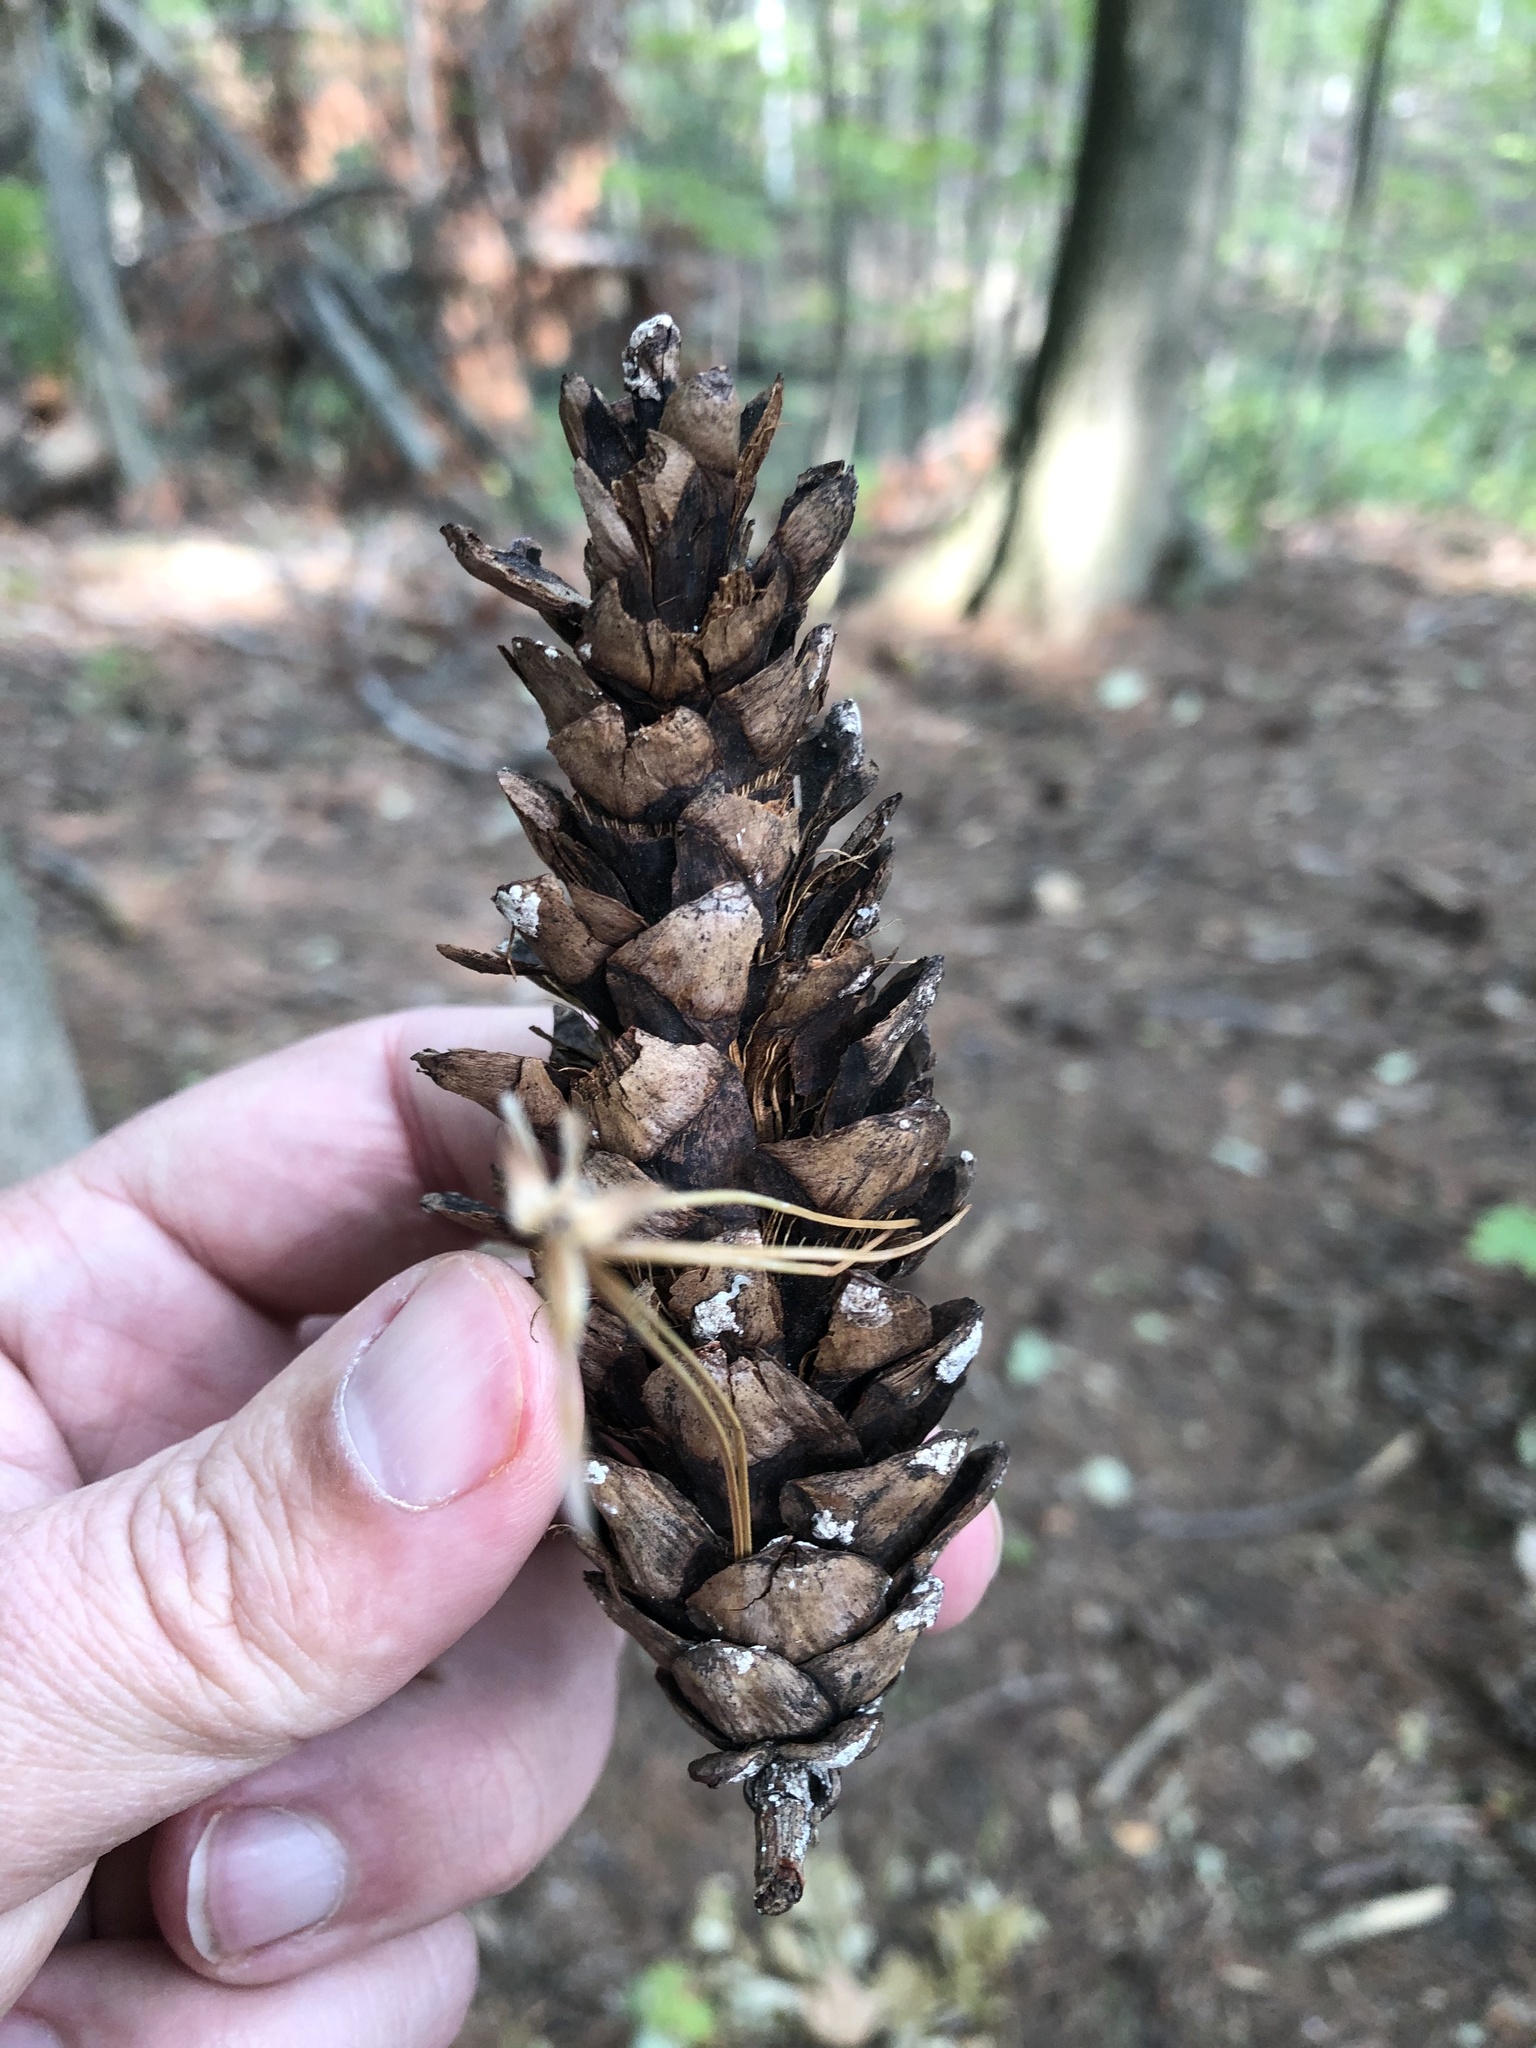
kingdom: Plantae
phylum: Tracheophyta
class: Pinopsida
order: Pinales
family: Pinaceae
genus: Pinus
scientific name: Pinus strobus
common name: Weymouth pine
